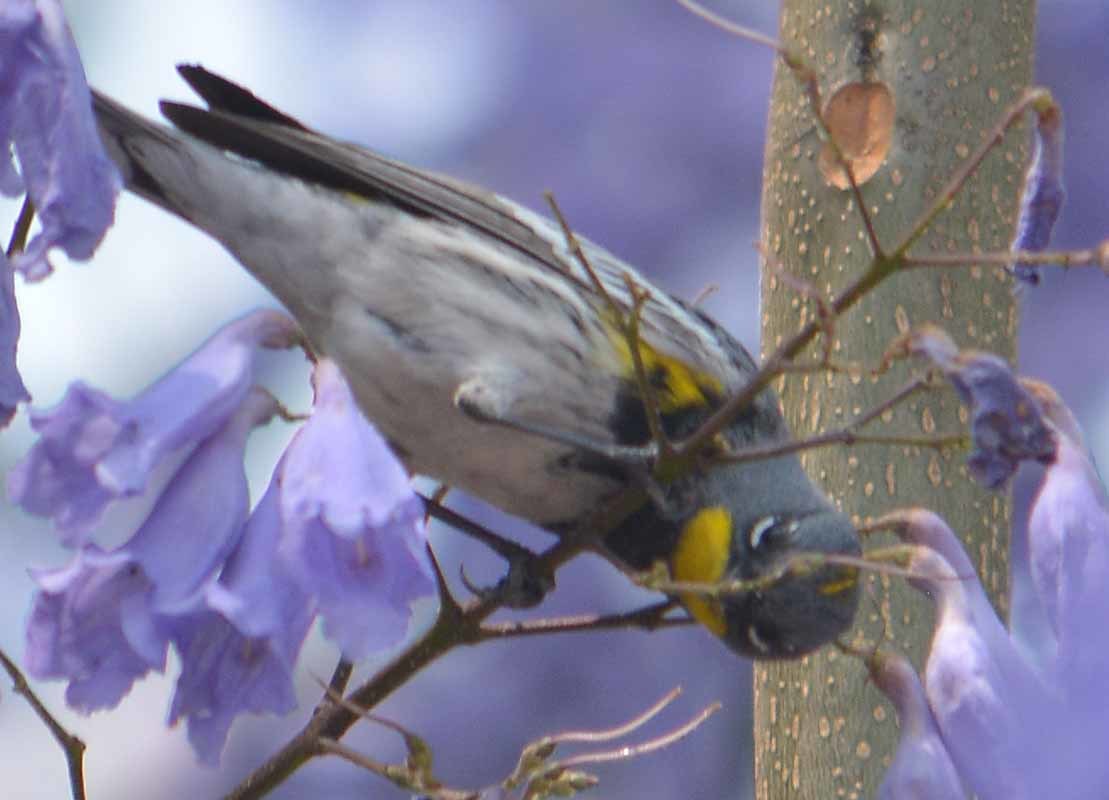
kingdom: Animalia
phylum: Chordata
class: Aves
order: Passeriformes
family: Parulidae
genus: Setophaga
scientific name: Setophaga auduboni
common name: Audubon's warbler
